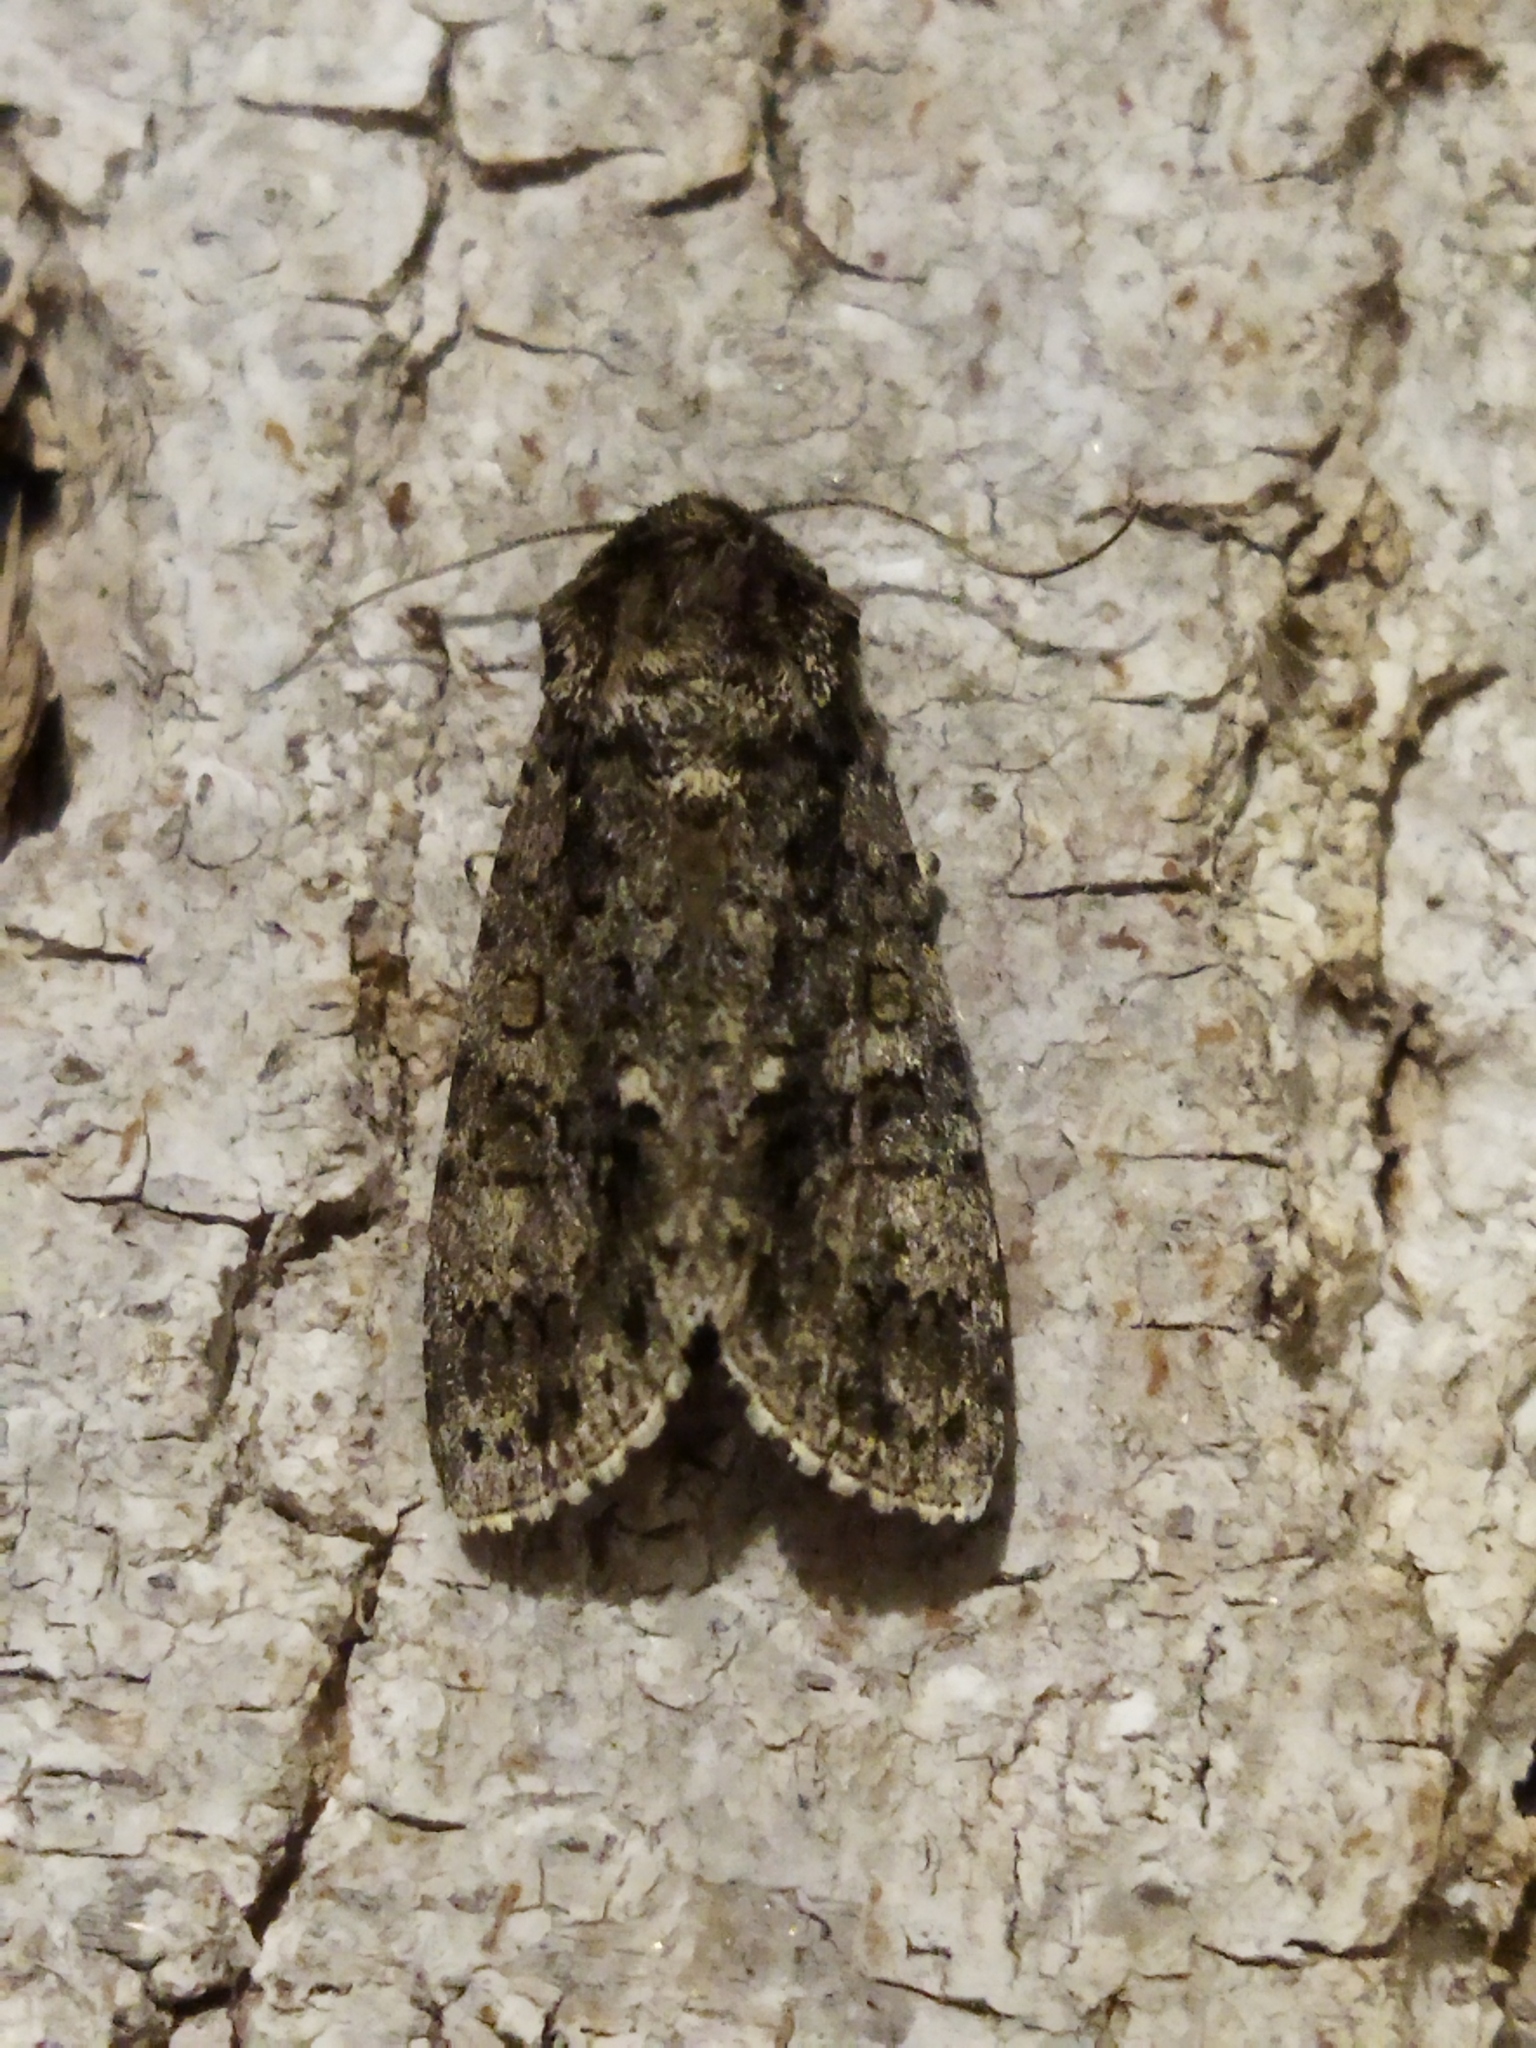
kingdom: Animalia
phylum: Arthropoda
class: Insecta
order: Lepidoptera
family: Noctuidae
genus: Acronicta
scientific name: Acronicta rumicis
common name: Knot grass
